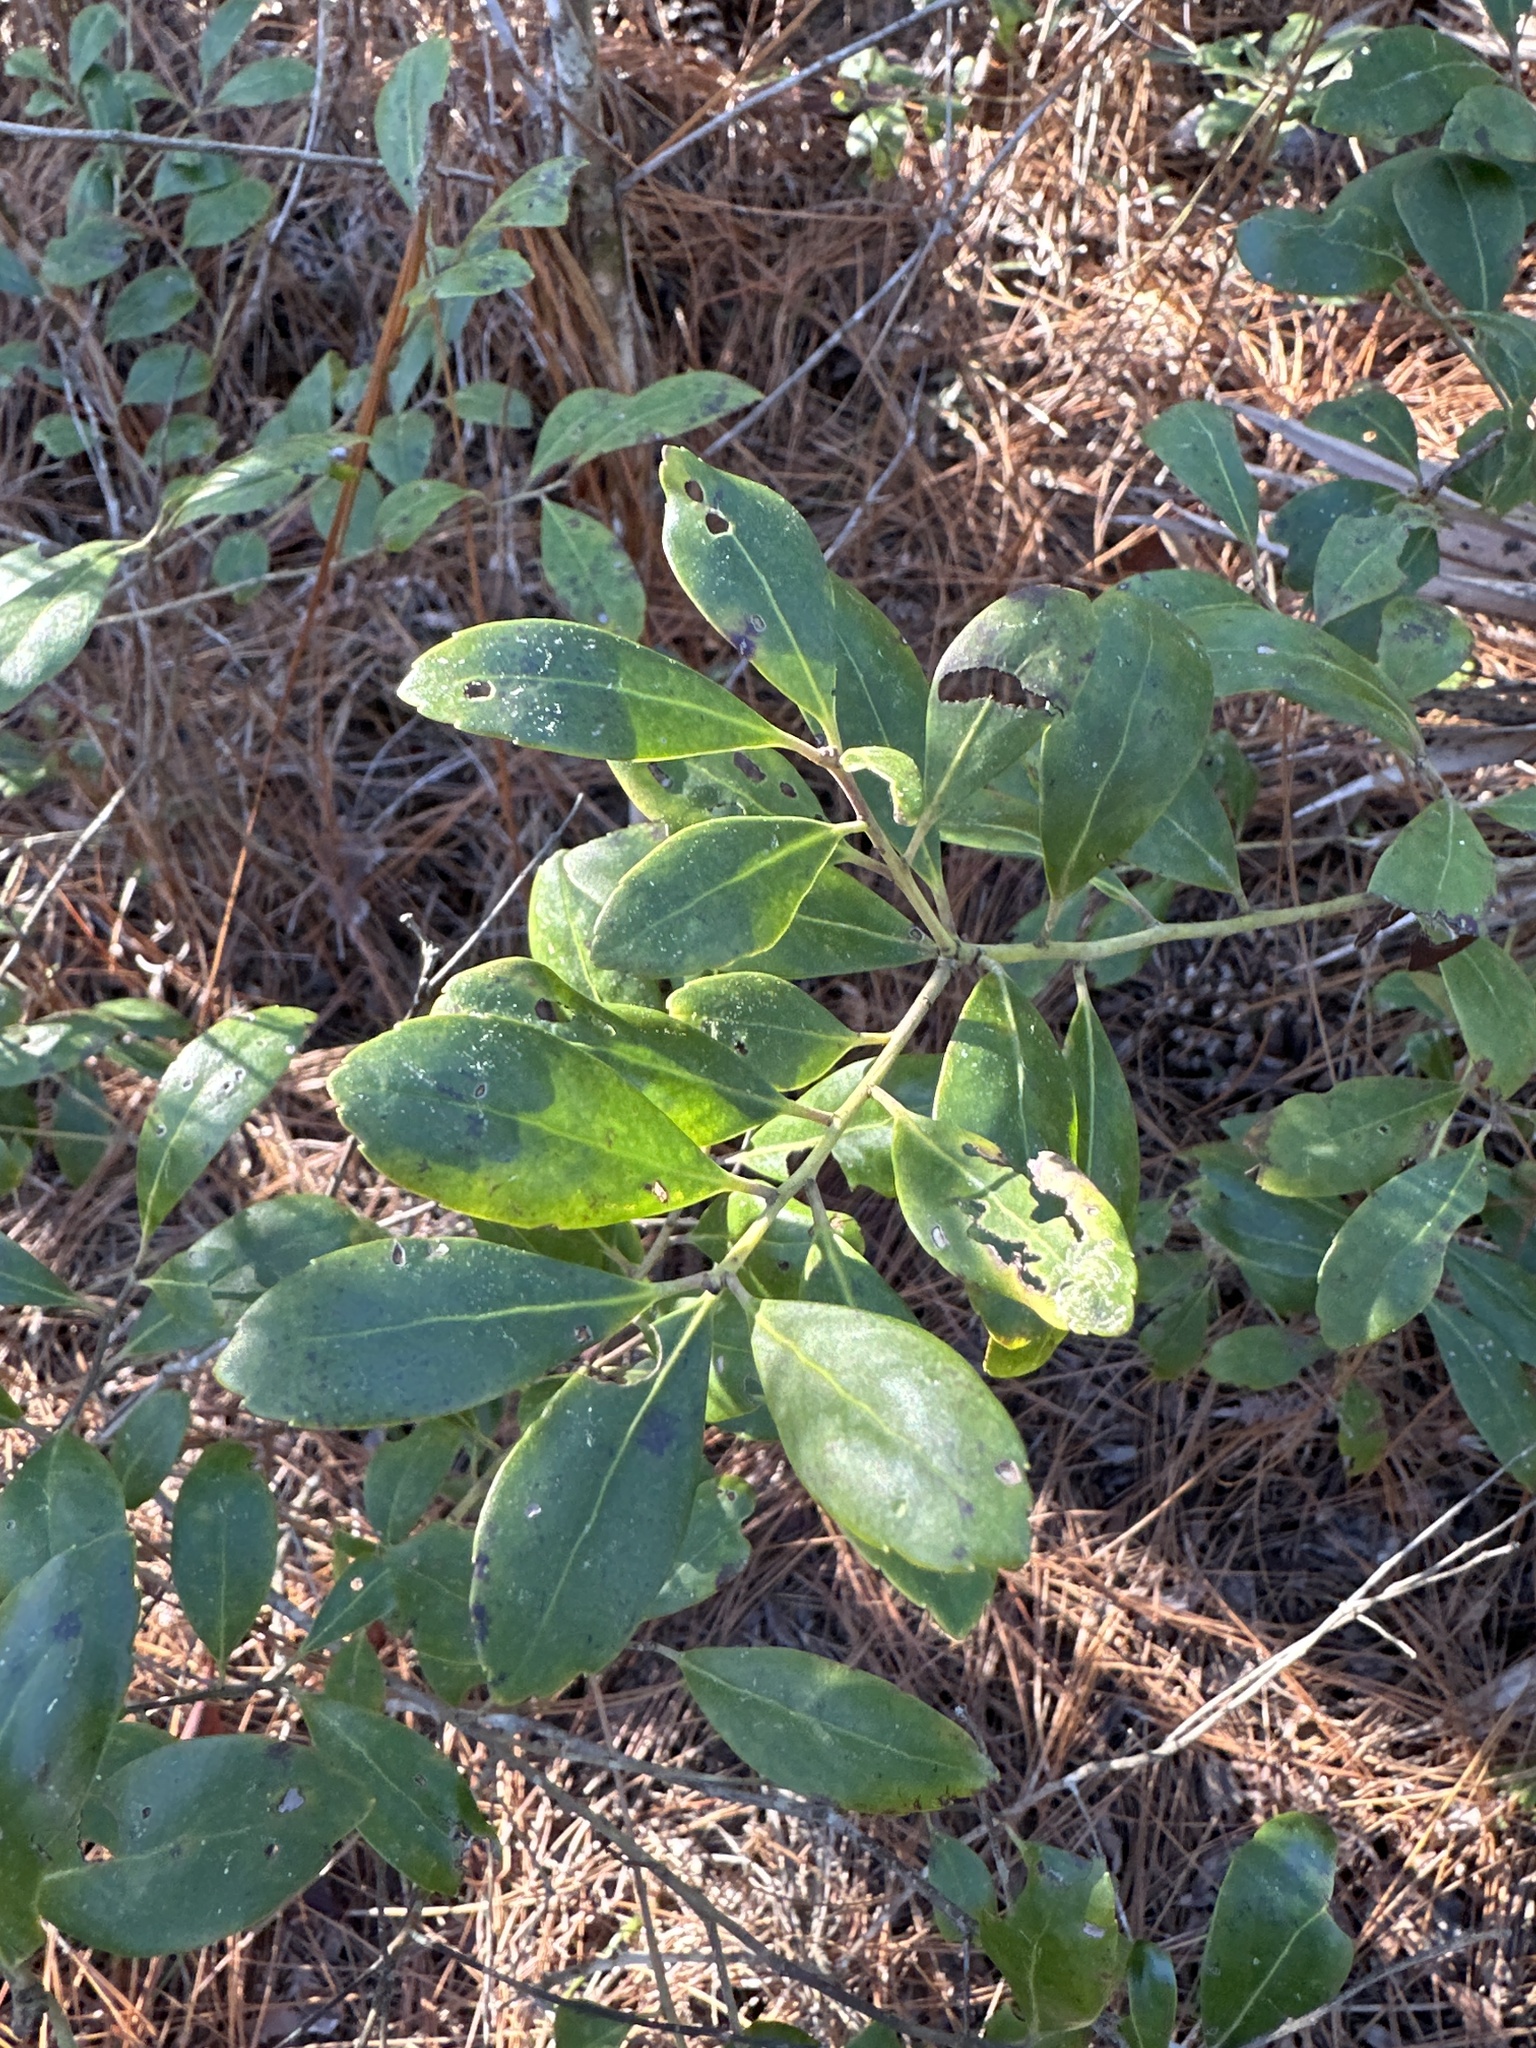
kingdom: Plantae
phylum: Tracheophyta
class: Magnoliopsida
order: Aquifoliales
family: Aquifoliaceae
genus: Ilex
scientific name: Ilex glabra
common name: Bitter gallberry
